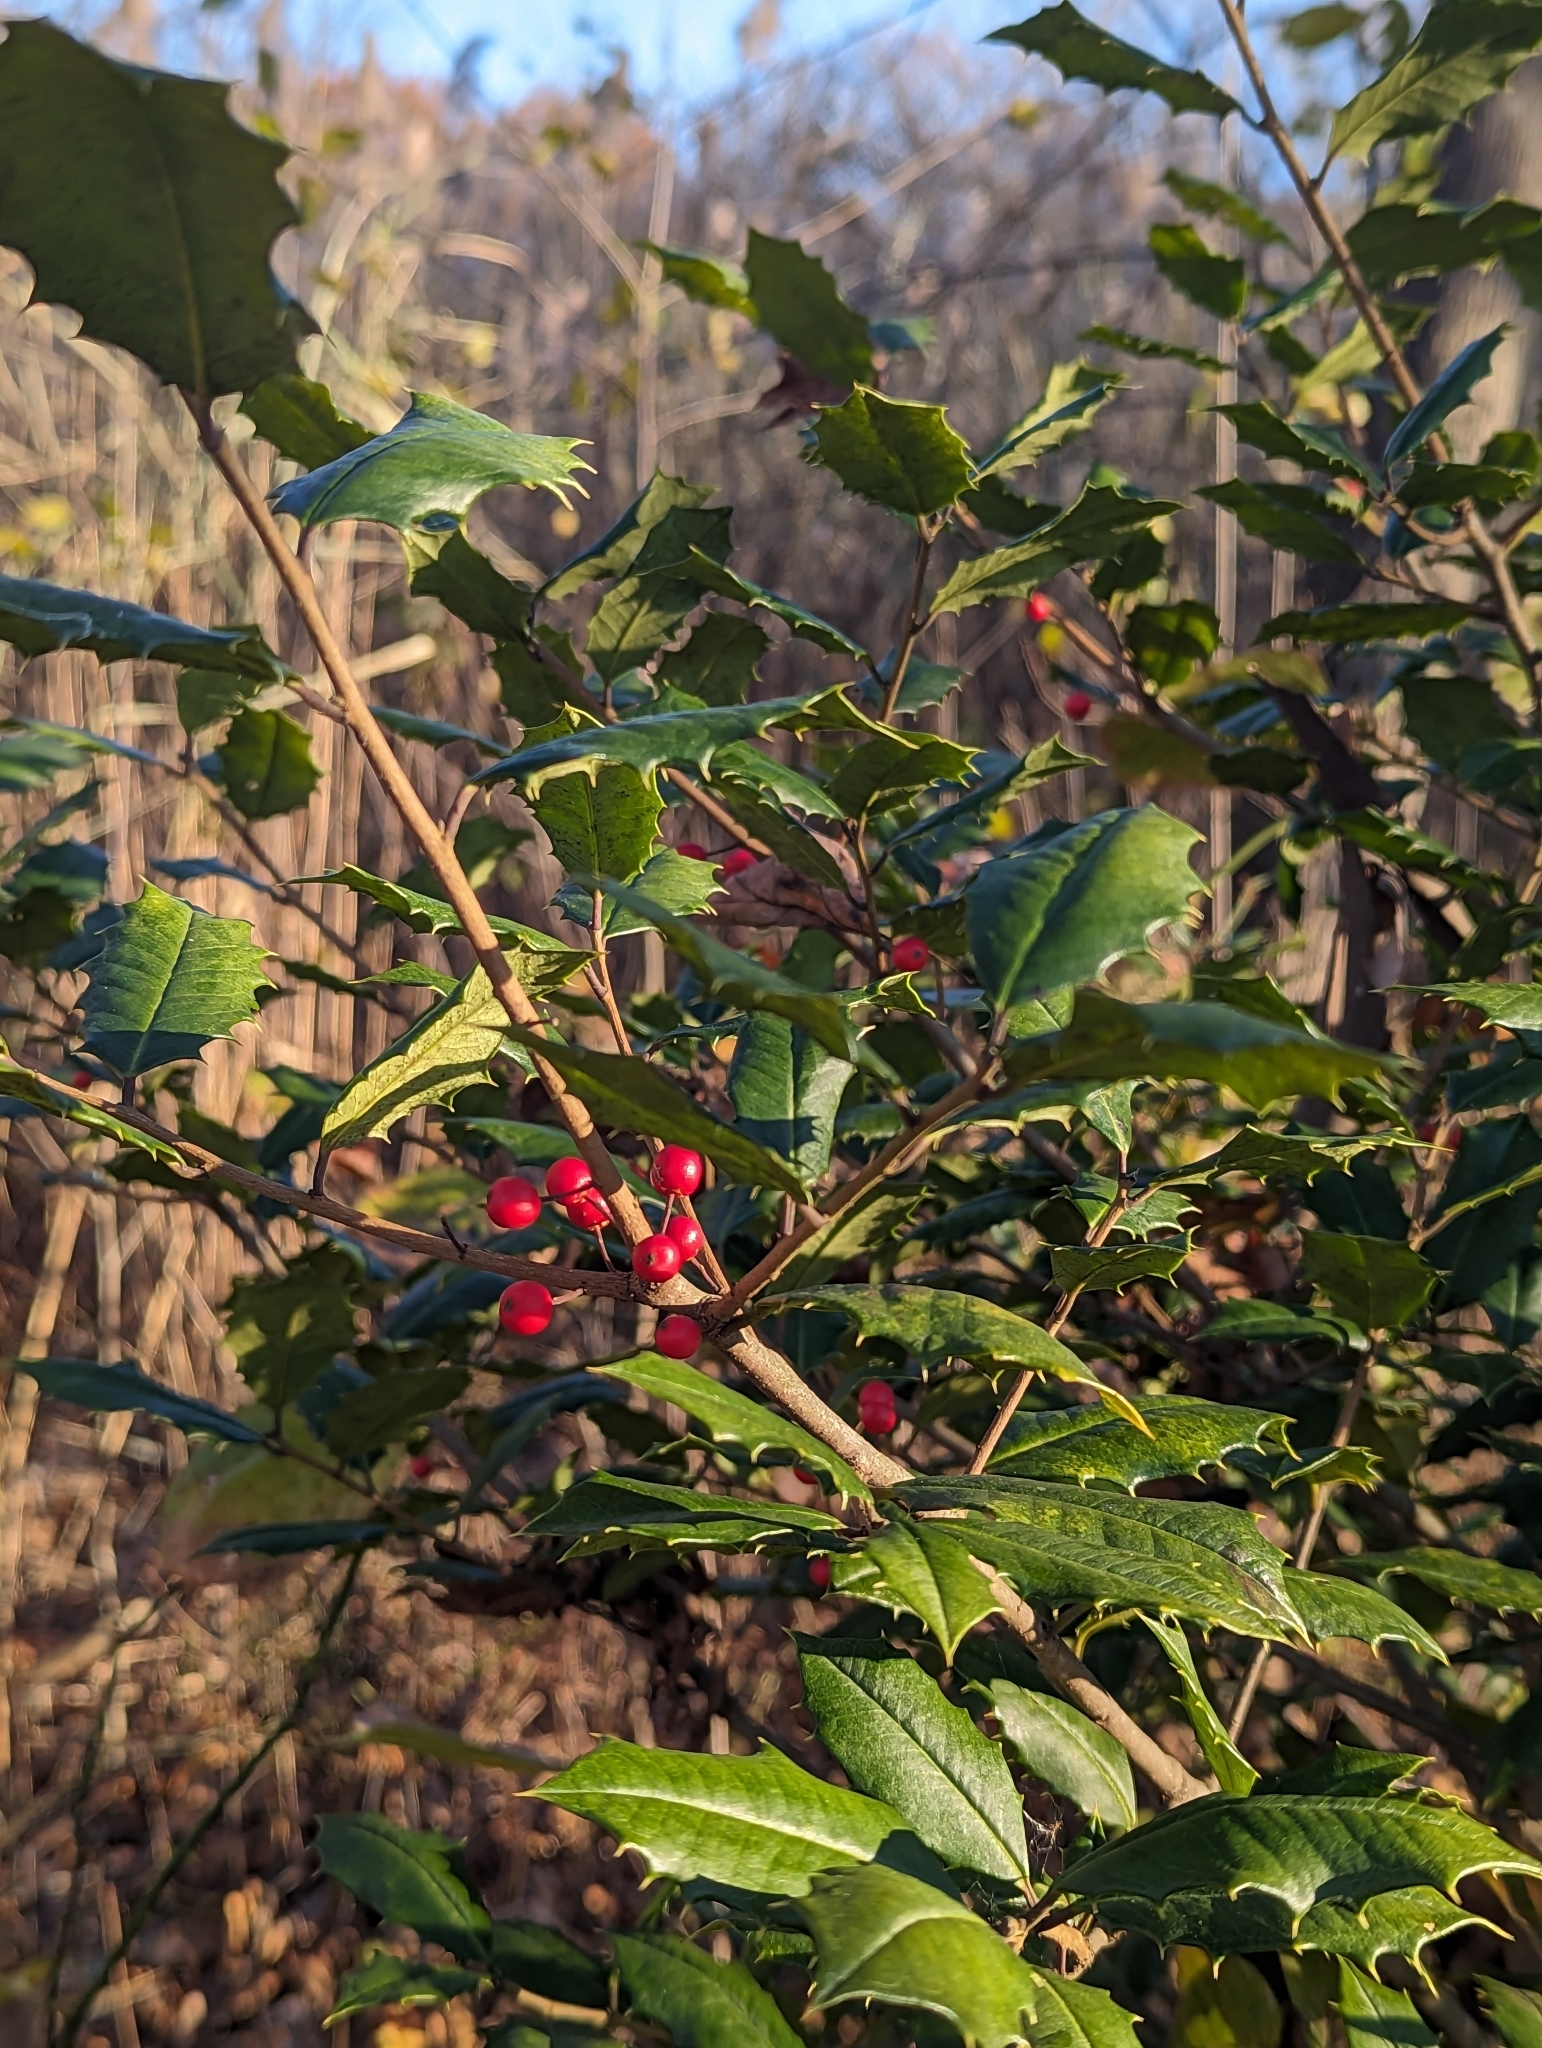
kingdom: Plantae
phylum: Tracheophyta
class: Magnoliopsida
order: Aquifoliales
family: Aquifoliaceae
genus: Ilex
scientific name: Ilex opaca
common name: American holly
